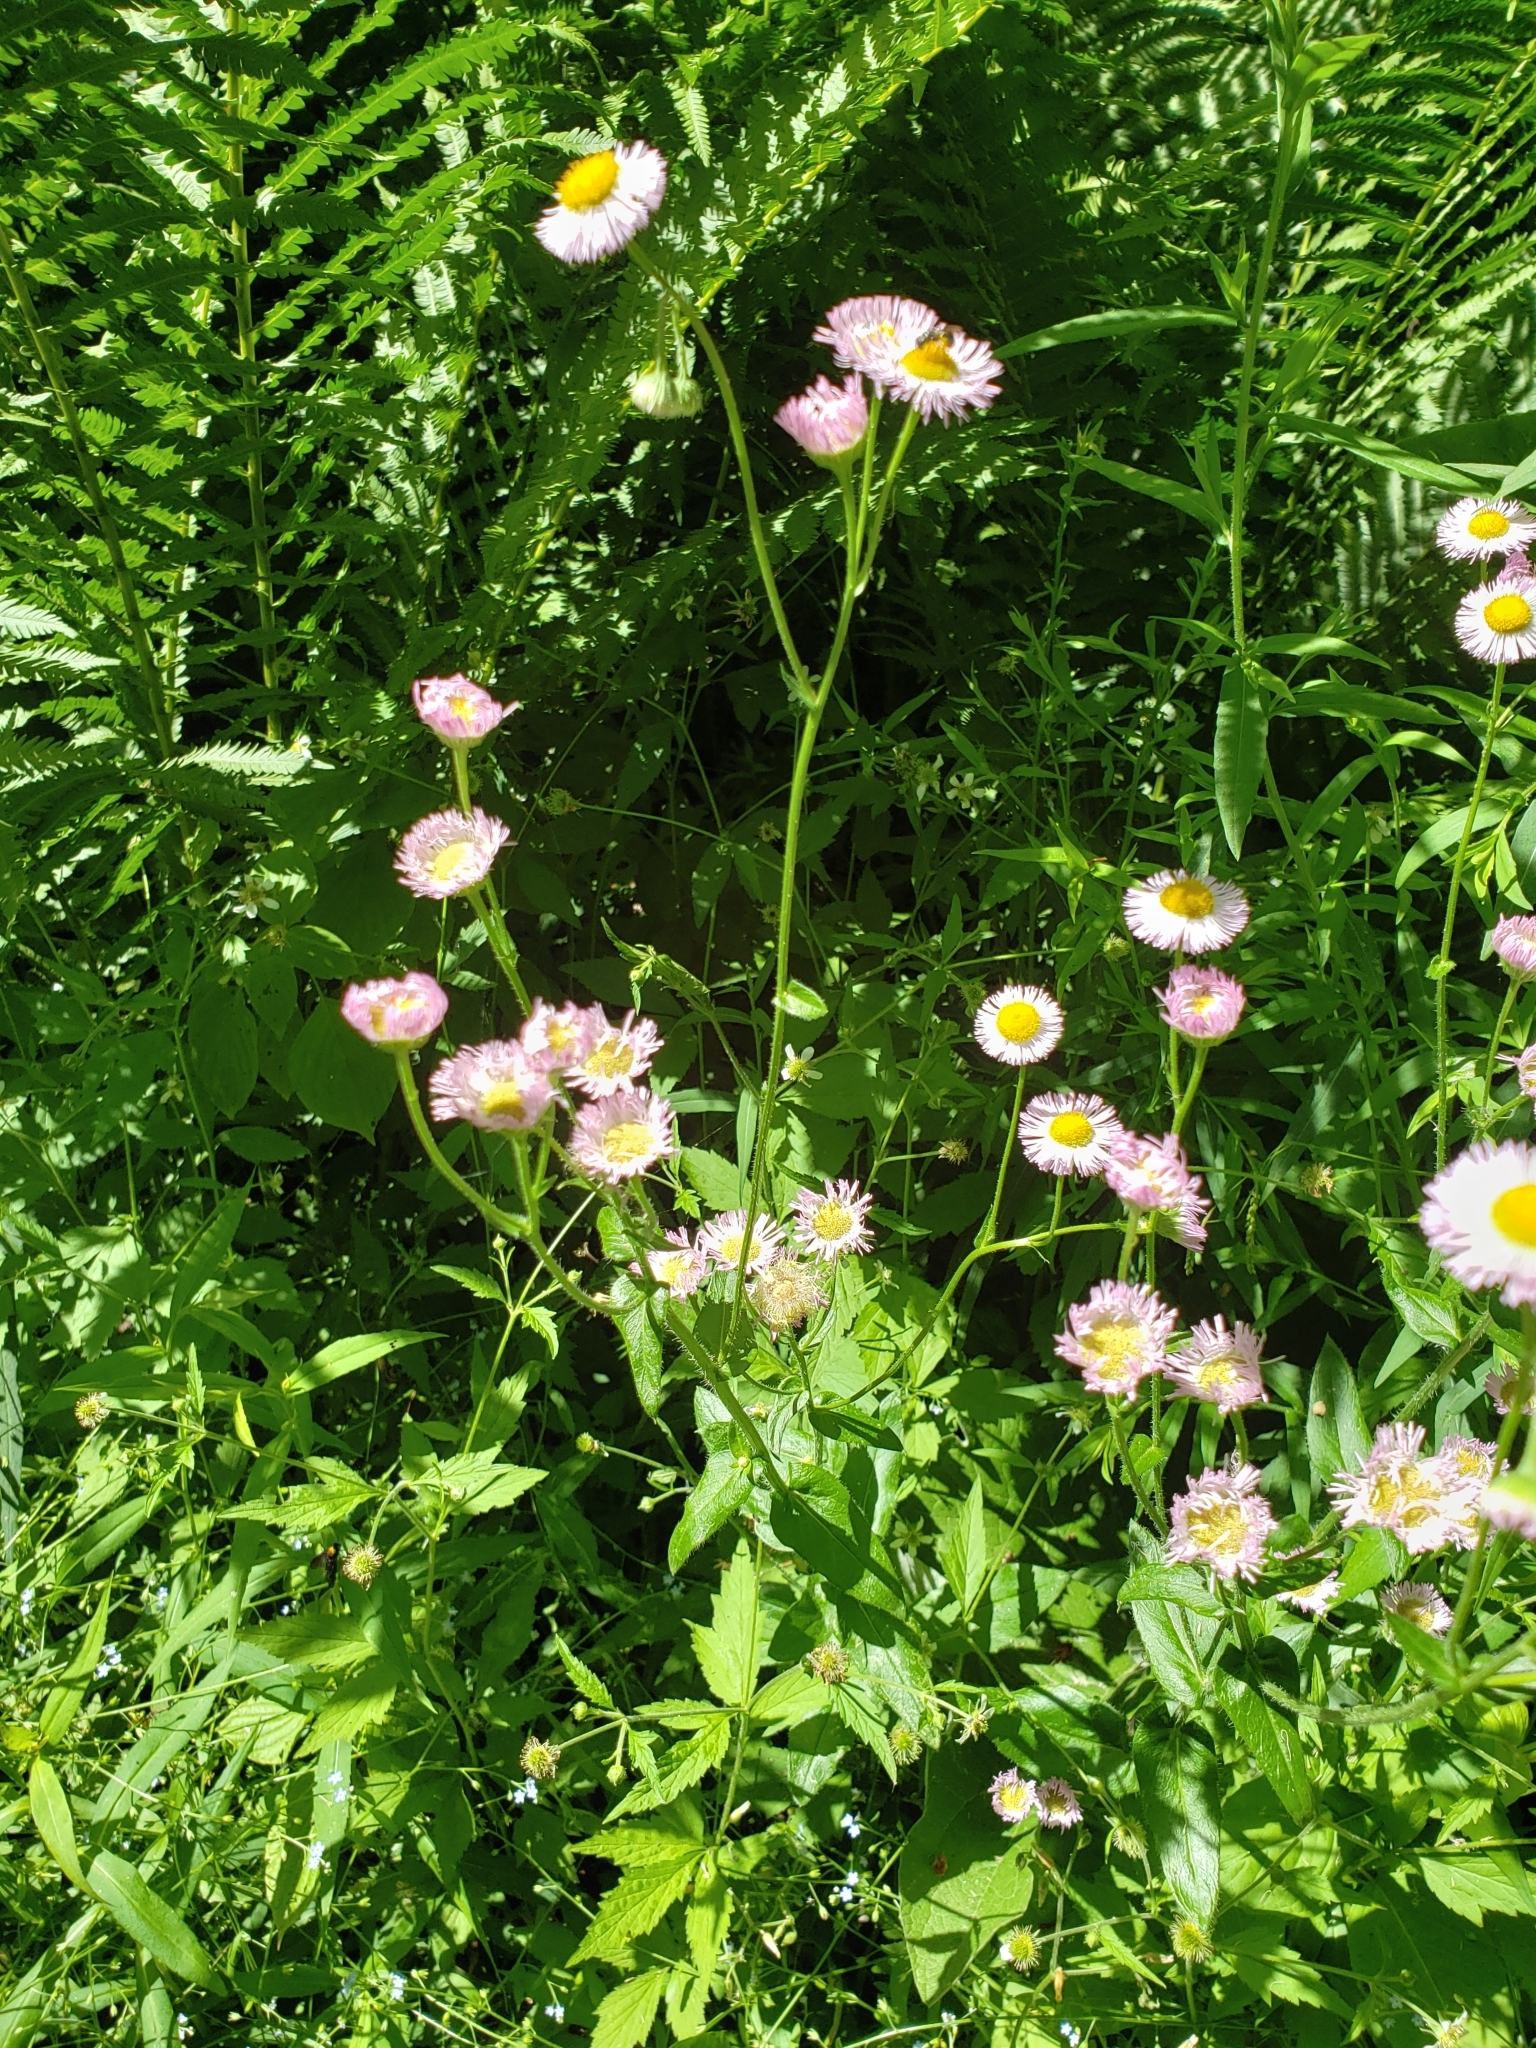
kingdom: Plantae
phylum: Tracheophyta
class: Magnoliopsida
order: Asterales
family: Asteraceae
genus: Erigeron
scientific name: Erigeron philadelphicus
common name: Robin's-plantain
